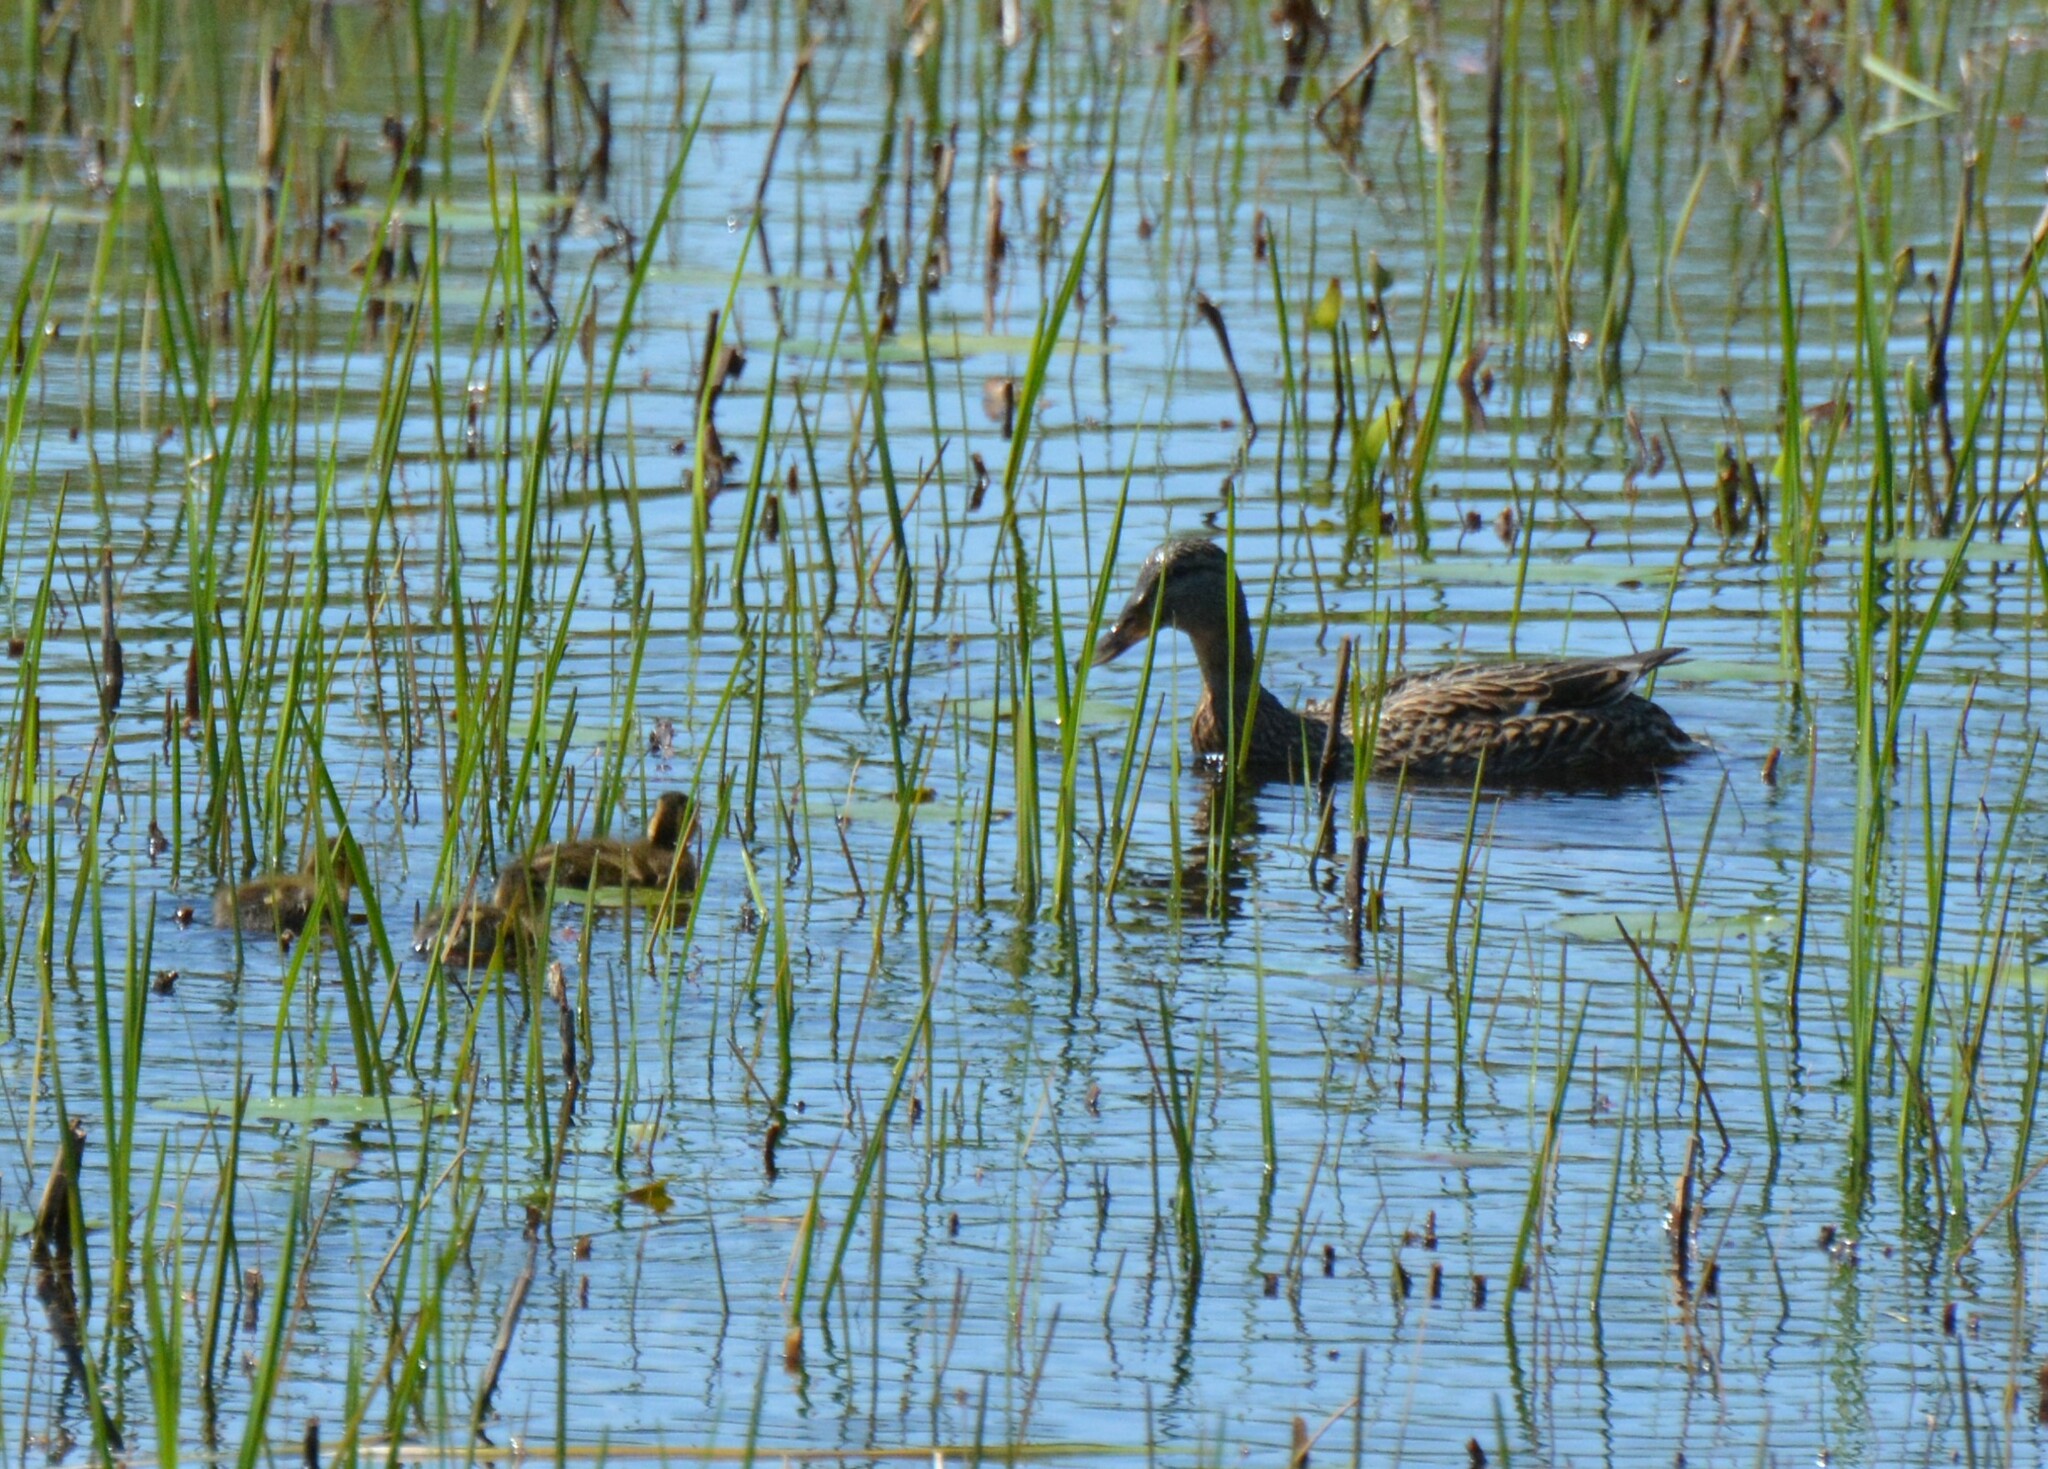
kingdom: Animalia
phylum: Chordata
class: Aves
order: Anseriformes
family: Anatidae
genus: Anas
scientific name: Anas platyrhynchos
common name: Mallard
